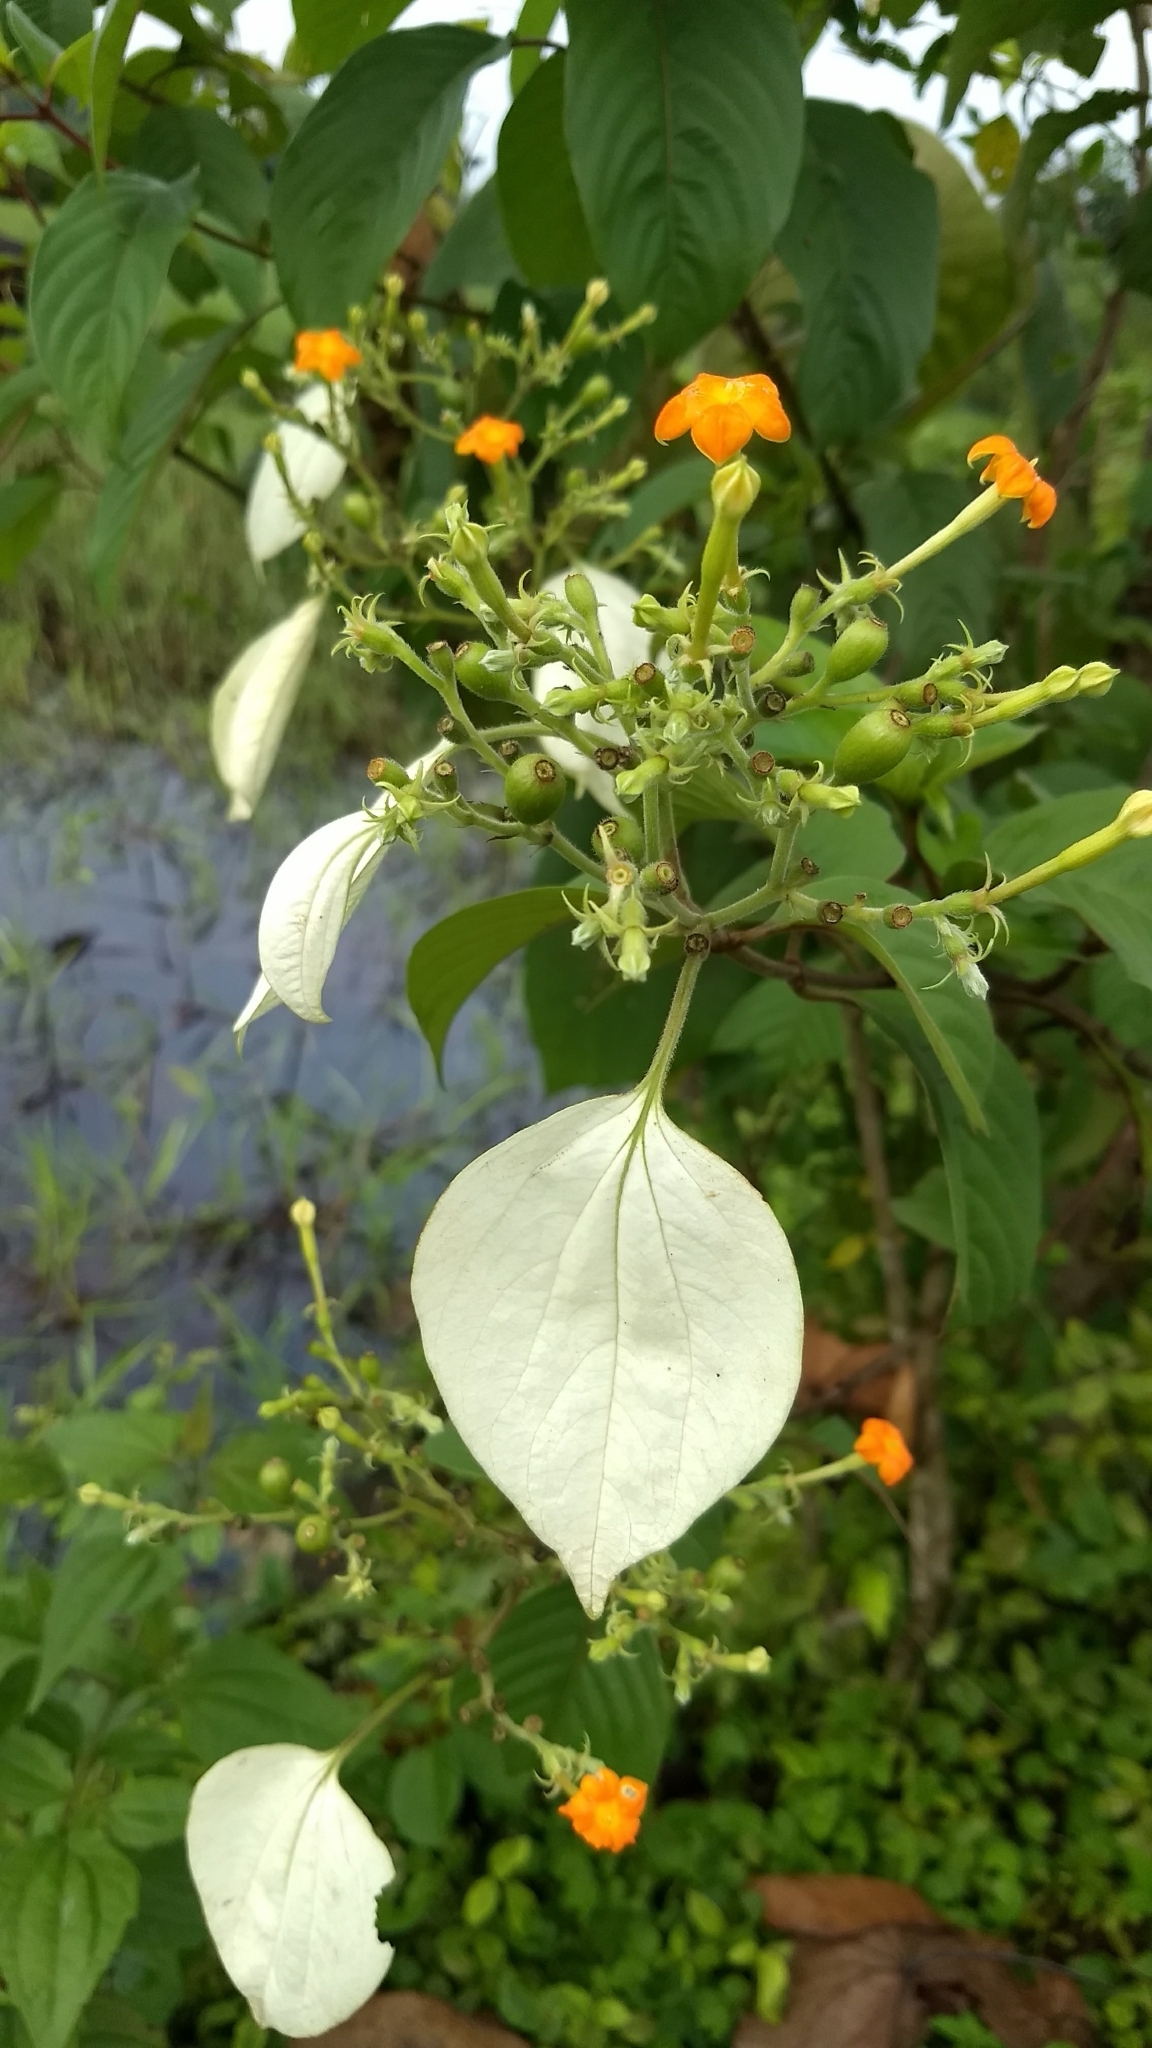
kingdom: Plantae
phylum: Tracheophyta
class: Magnoliopsida
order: Gentianales
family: Rubiaceae
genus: Mussaenda
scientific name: Mussaenda frondosa
